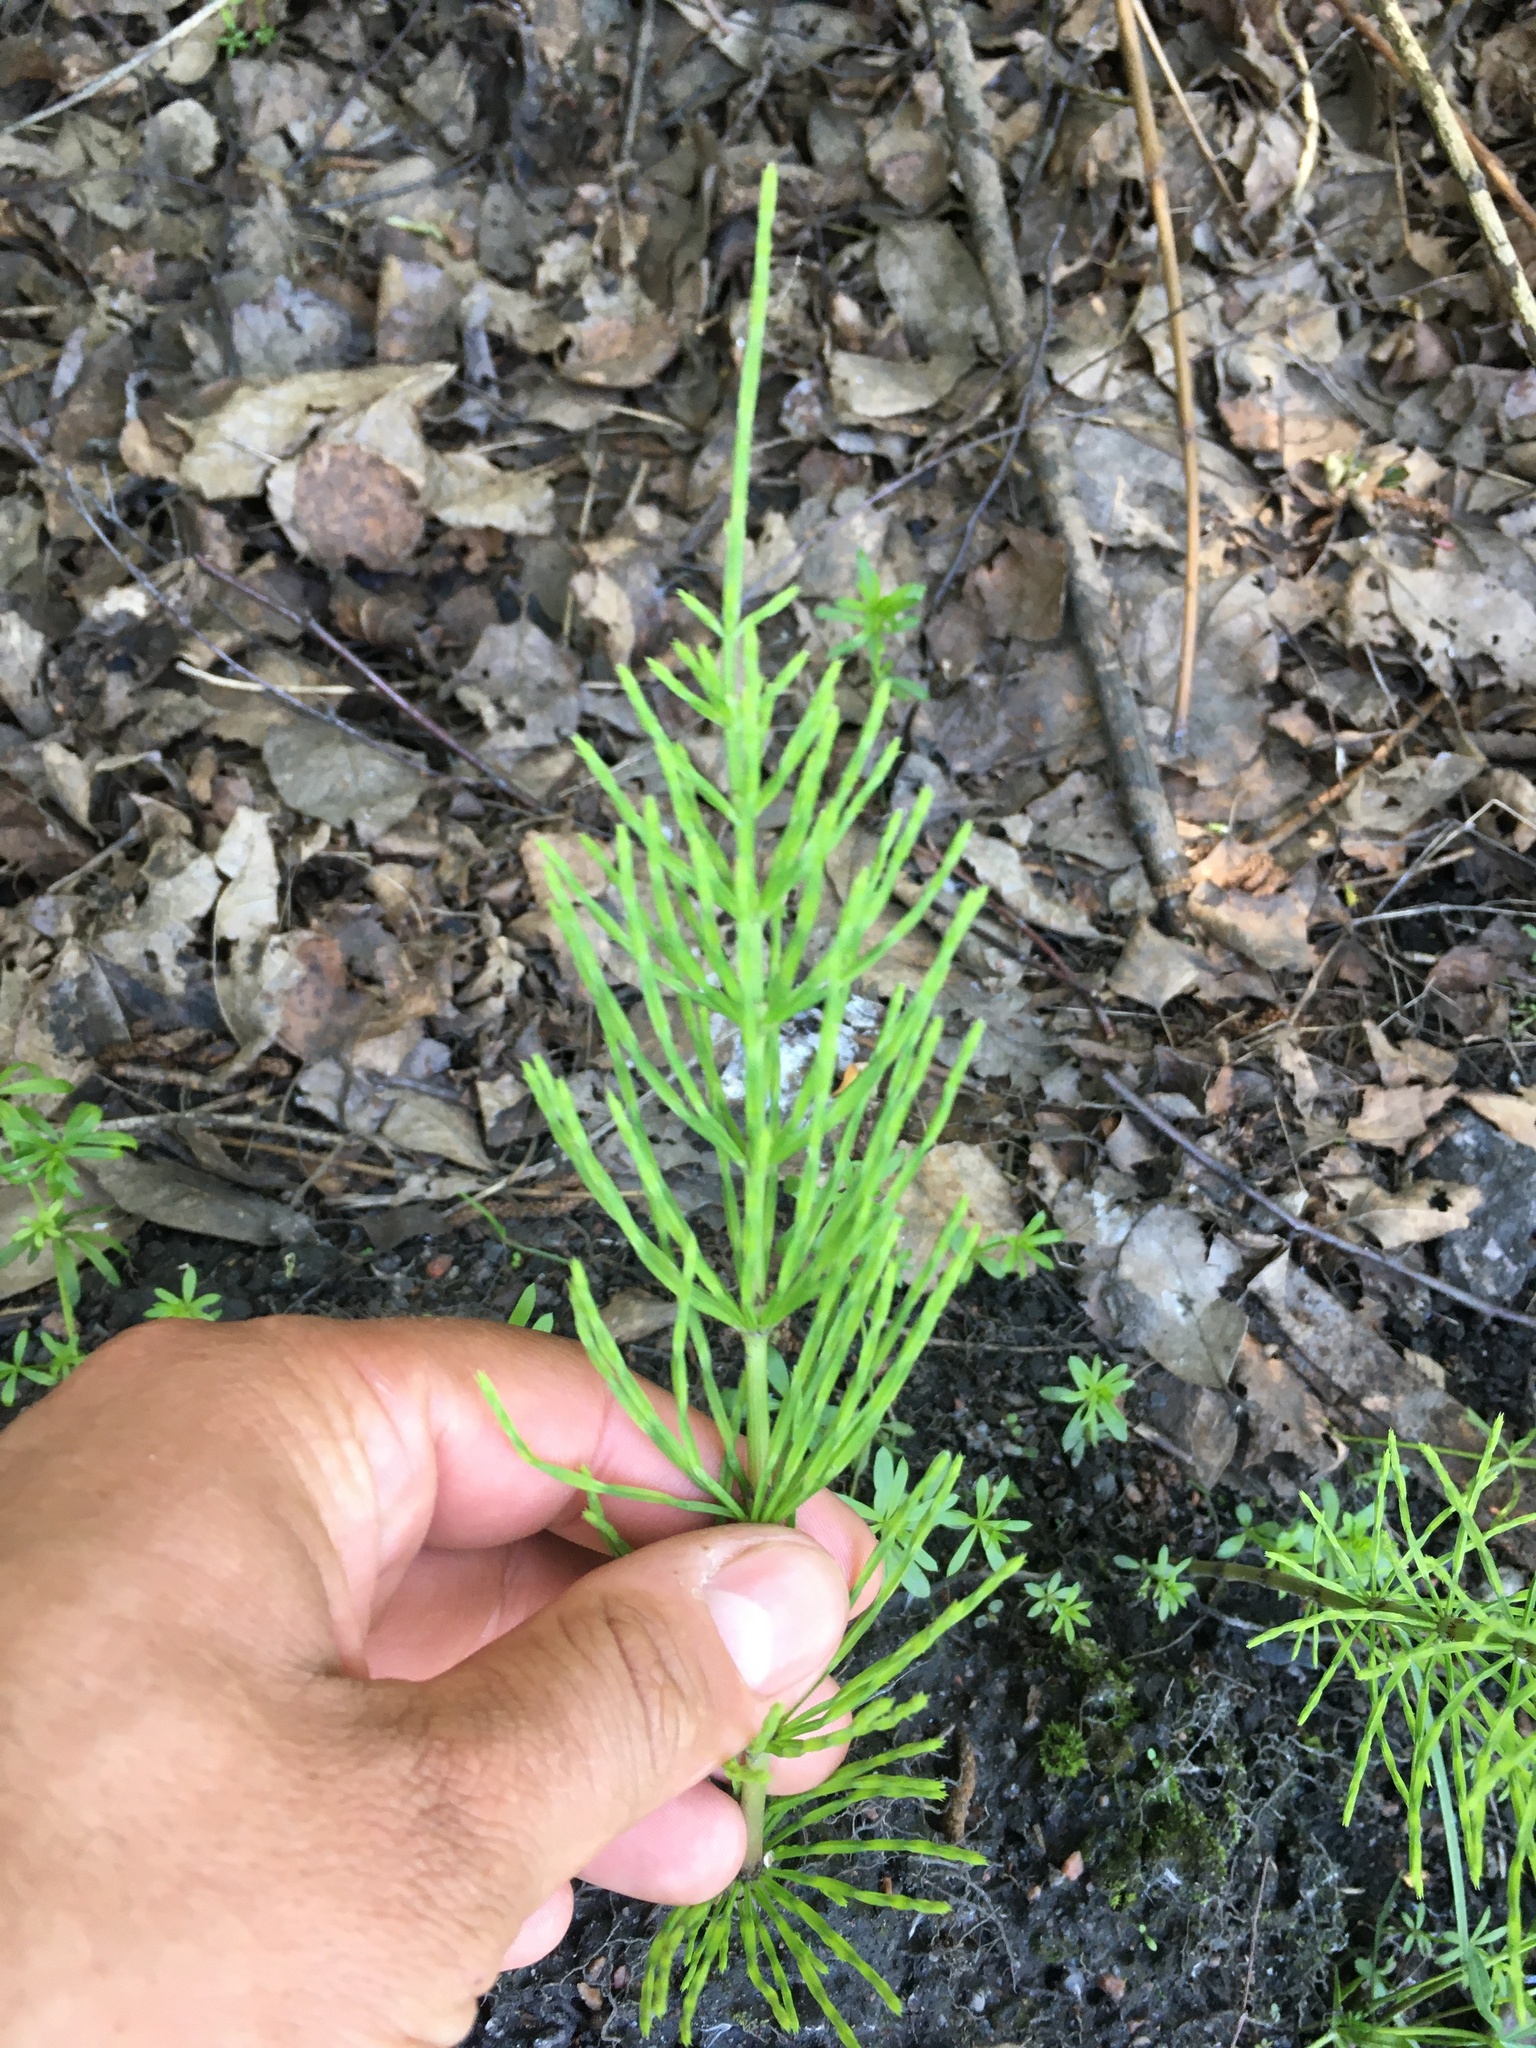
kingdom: Plantae
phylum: Tracheophyta
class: Polypodiopsida
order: Equisetales
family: Equisetaceae
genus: Equisetum
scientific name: Equisetum arvense
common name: Field horsetail
